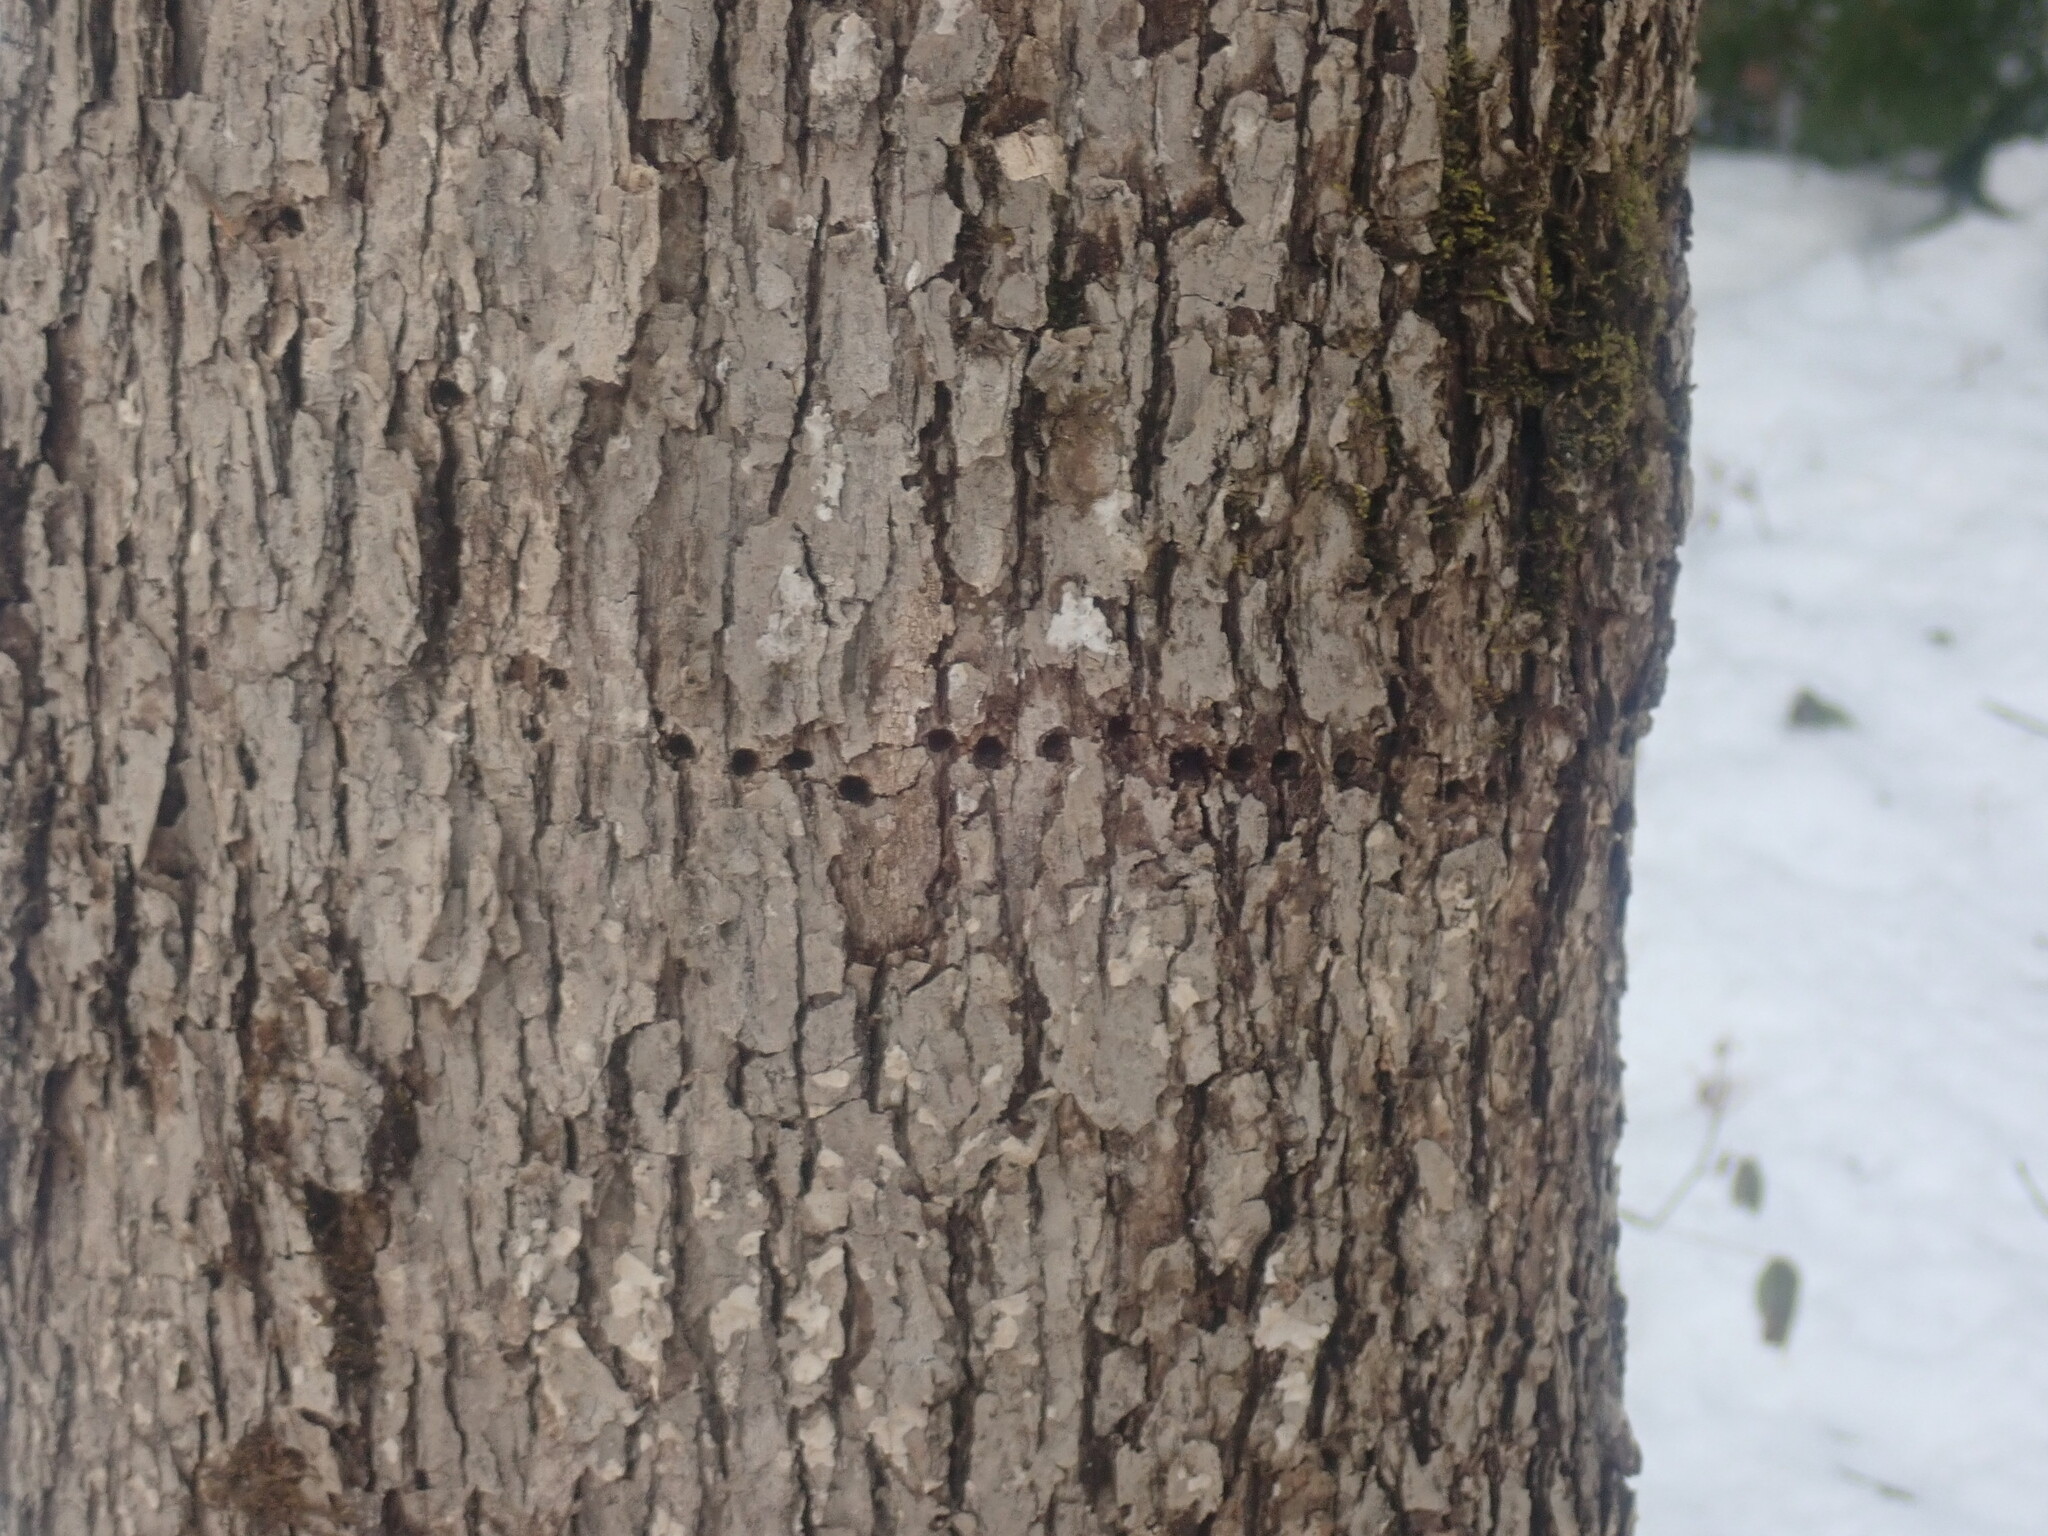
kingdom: Animalia
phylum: Chordata
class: Aves
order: Piciformes
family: Picidae
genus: Sphyrapicus
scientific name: Sphyrapicus varius
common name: Yellow-bellied sapsucker
